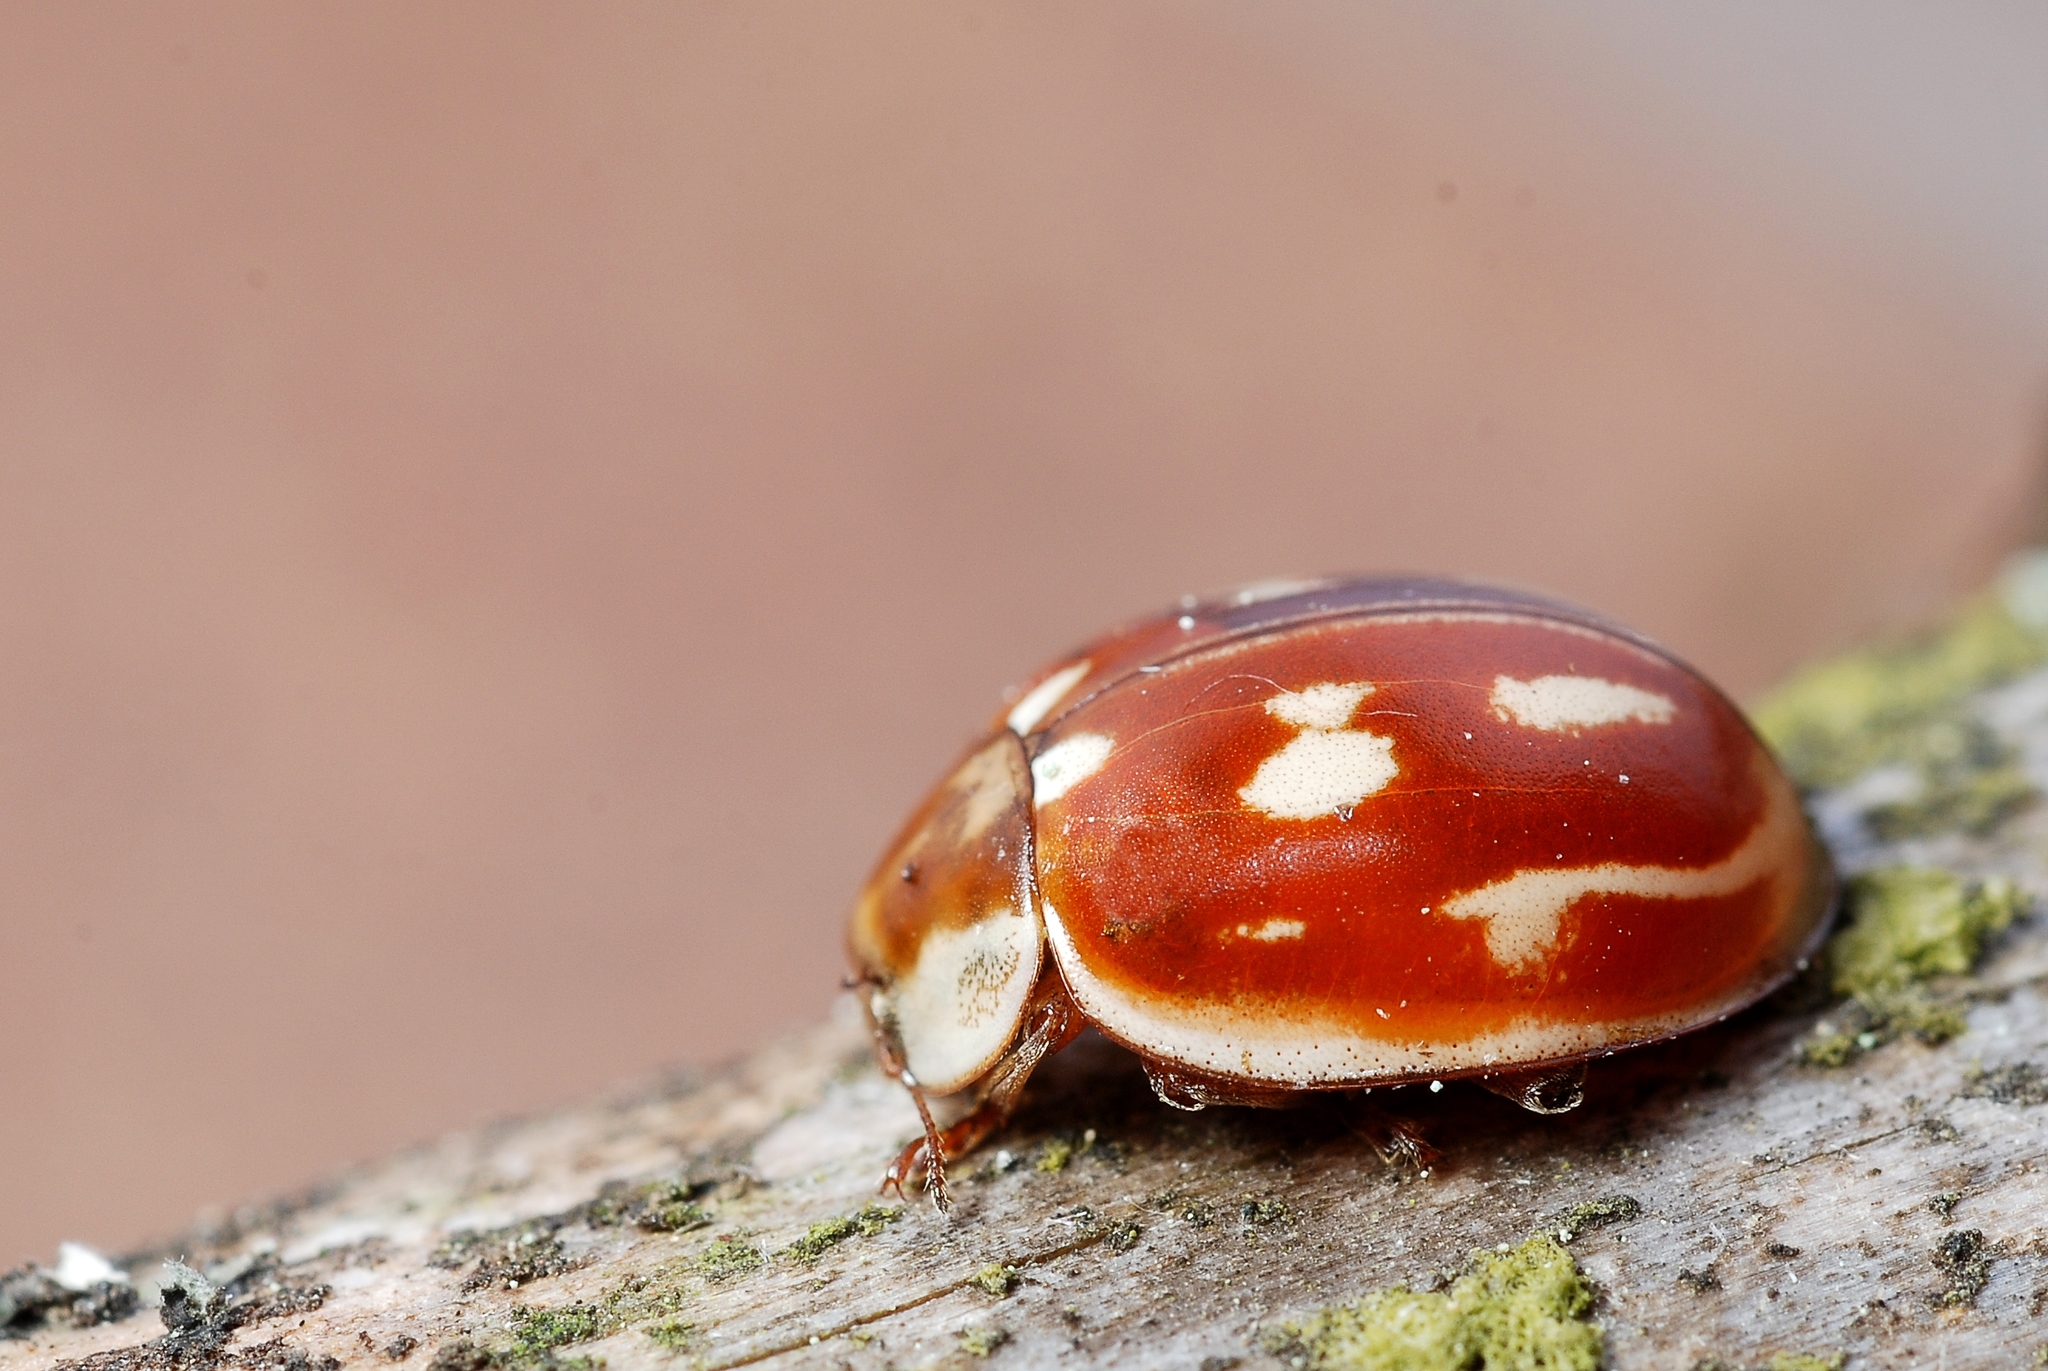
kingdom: Animalia
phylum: Arthropoda
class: Insecta
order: Coleoptera
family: Coccinellidae
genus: Myzia
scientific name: Myzia oblongoguttata
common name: Striped ladybird
